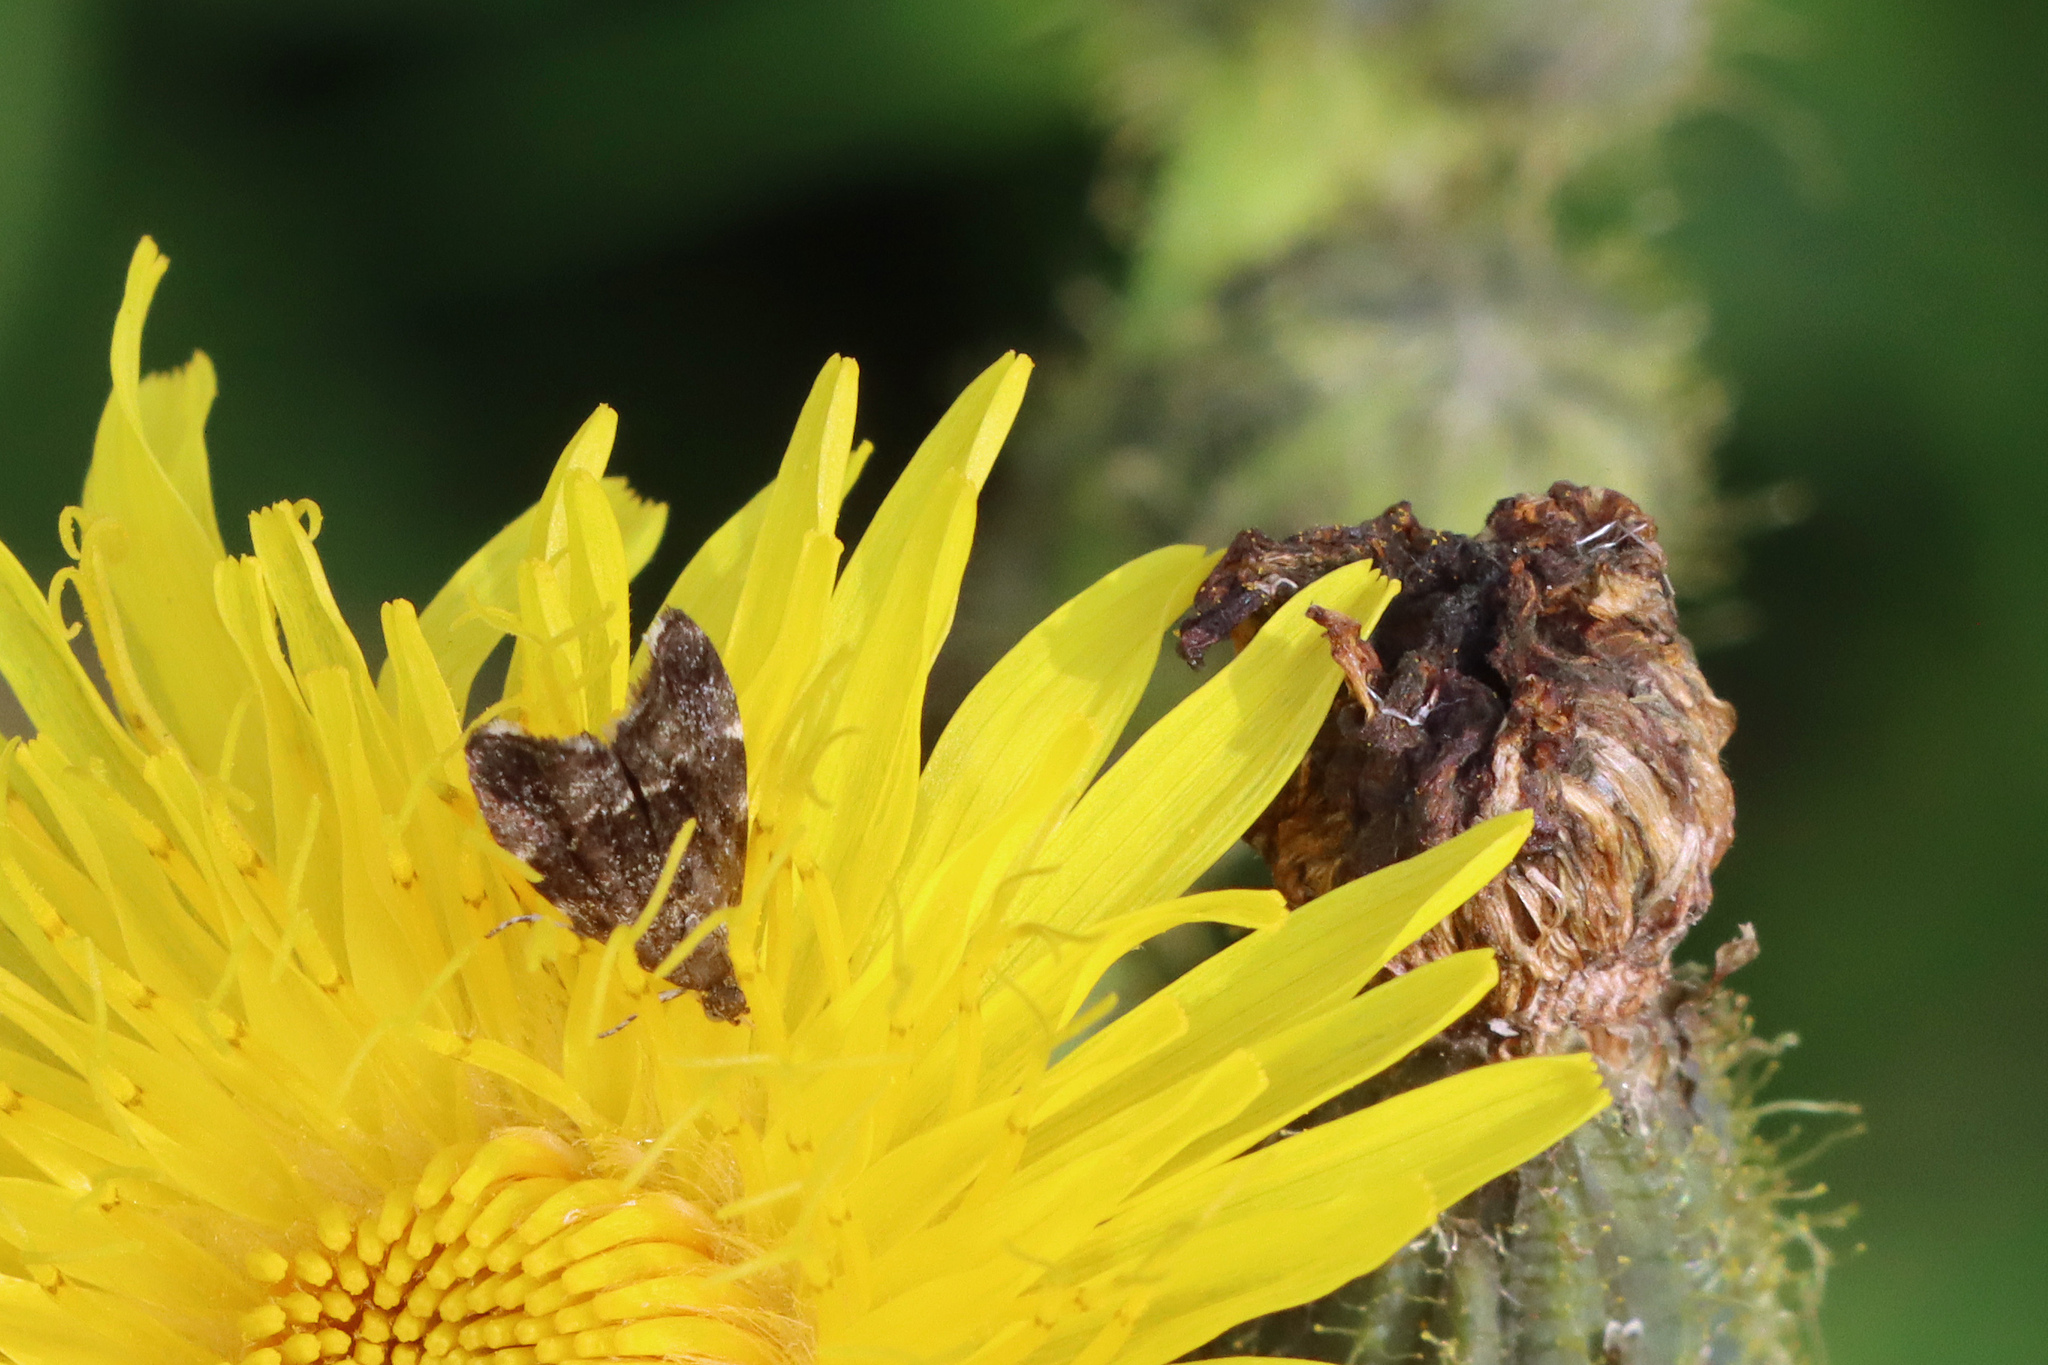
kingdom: Animalia
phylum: Arthropoda
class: Insecta
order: Lepidoptera
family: Choreutidae
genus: Anthophila
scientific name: Anthophila fabriciana
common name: Nettle-tap
